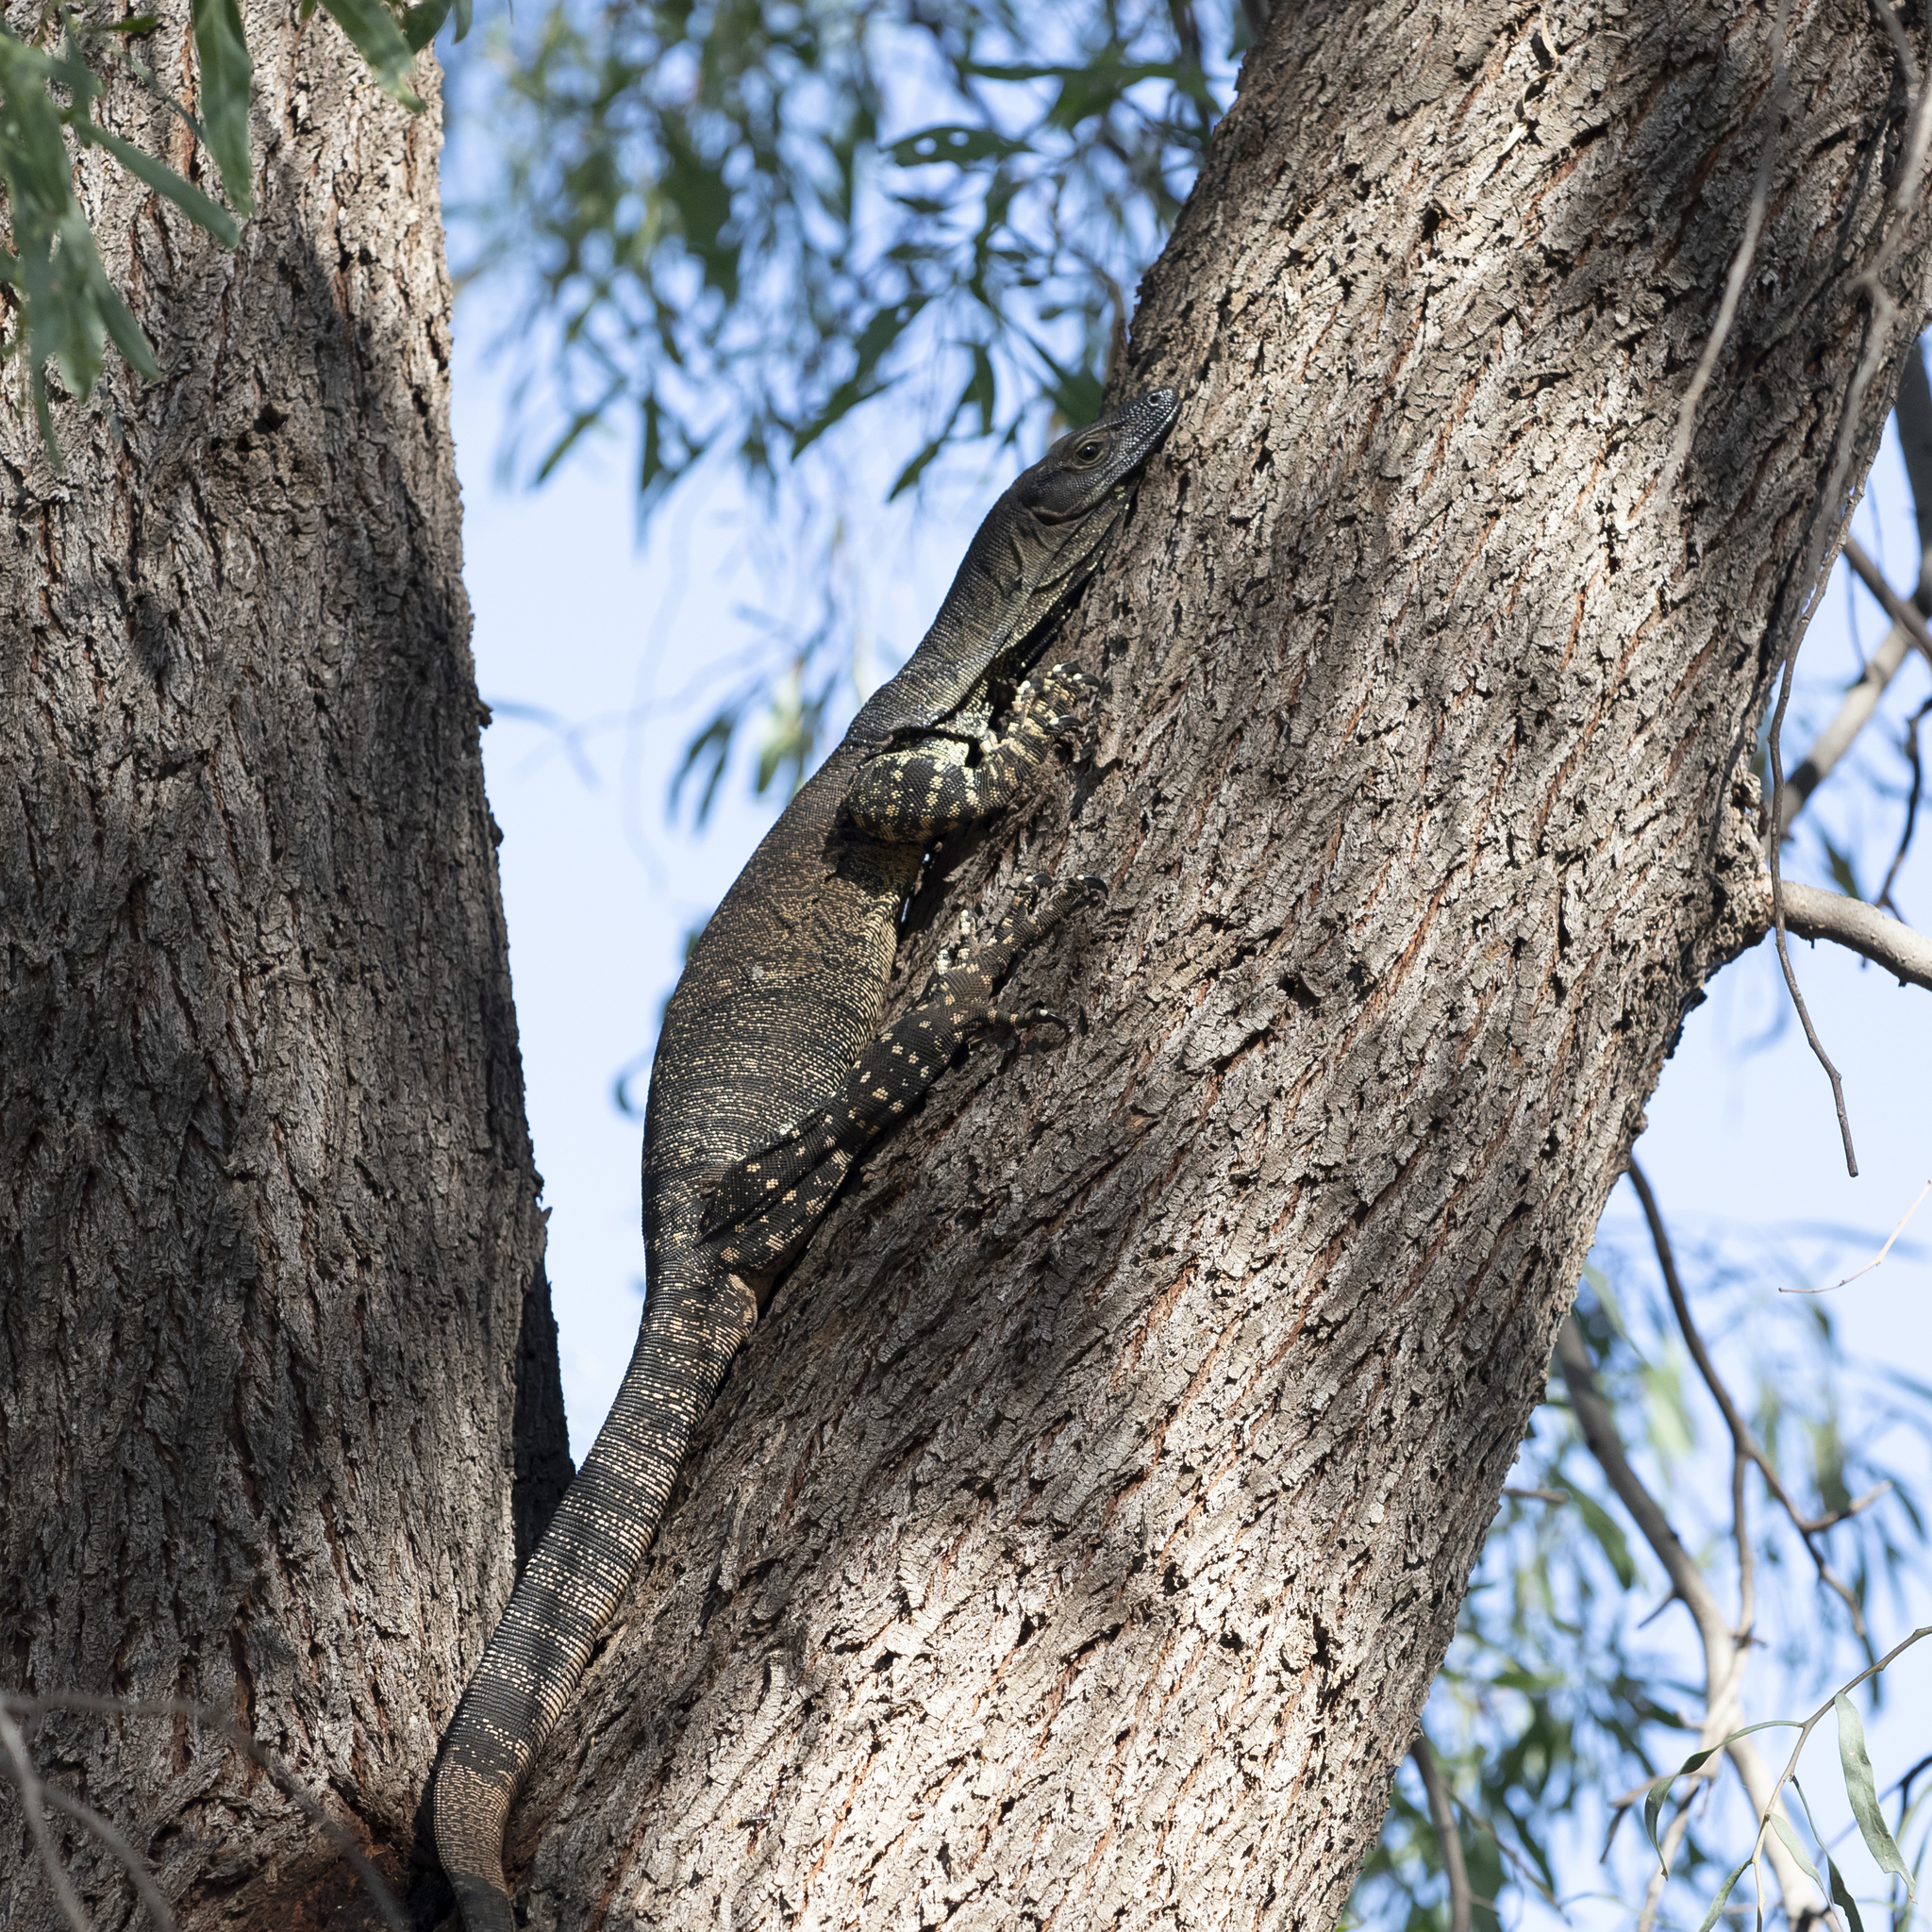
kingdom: Animalia
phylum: Chordata
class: Squamata
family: Varanidae
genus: Varanus
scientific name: Varanus varius
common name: Lace monitor
